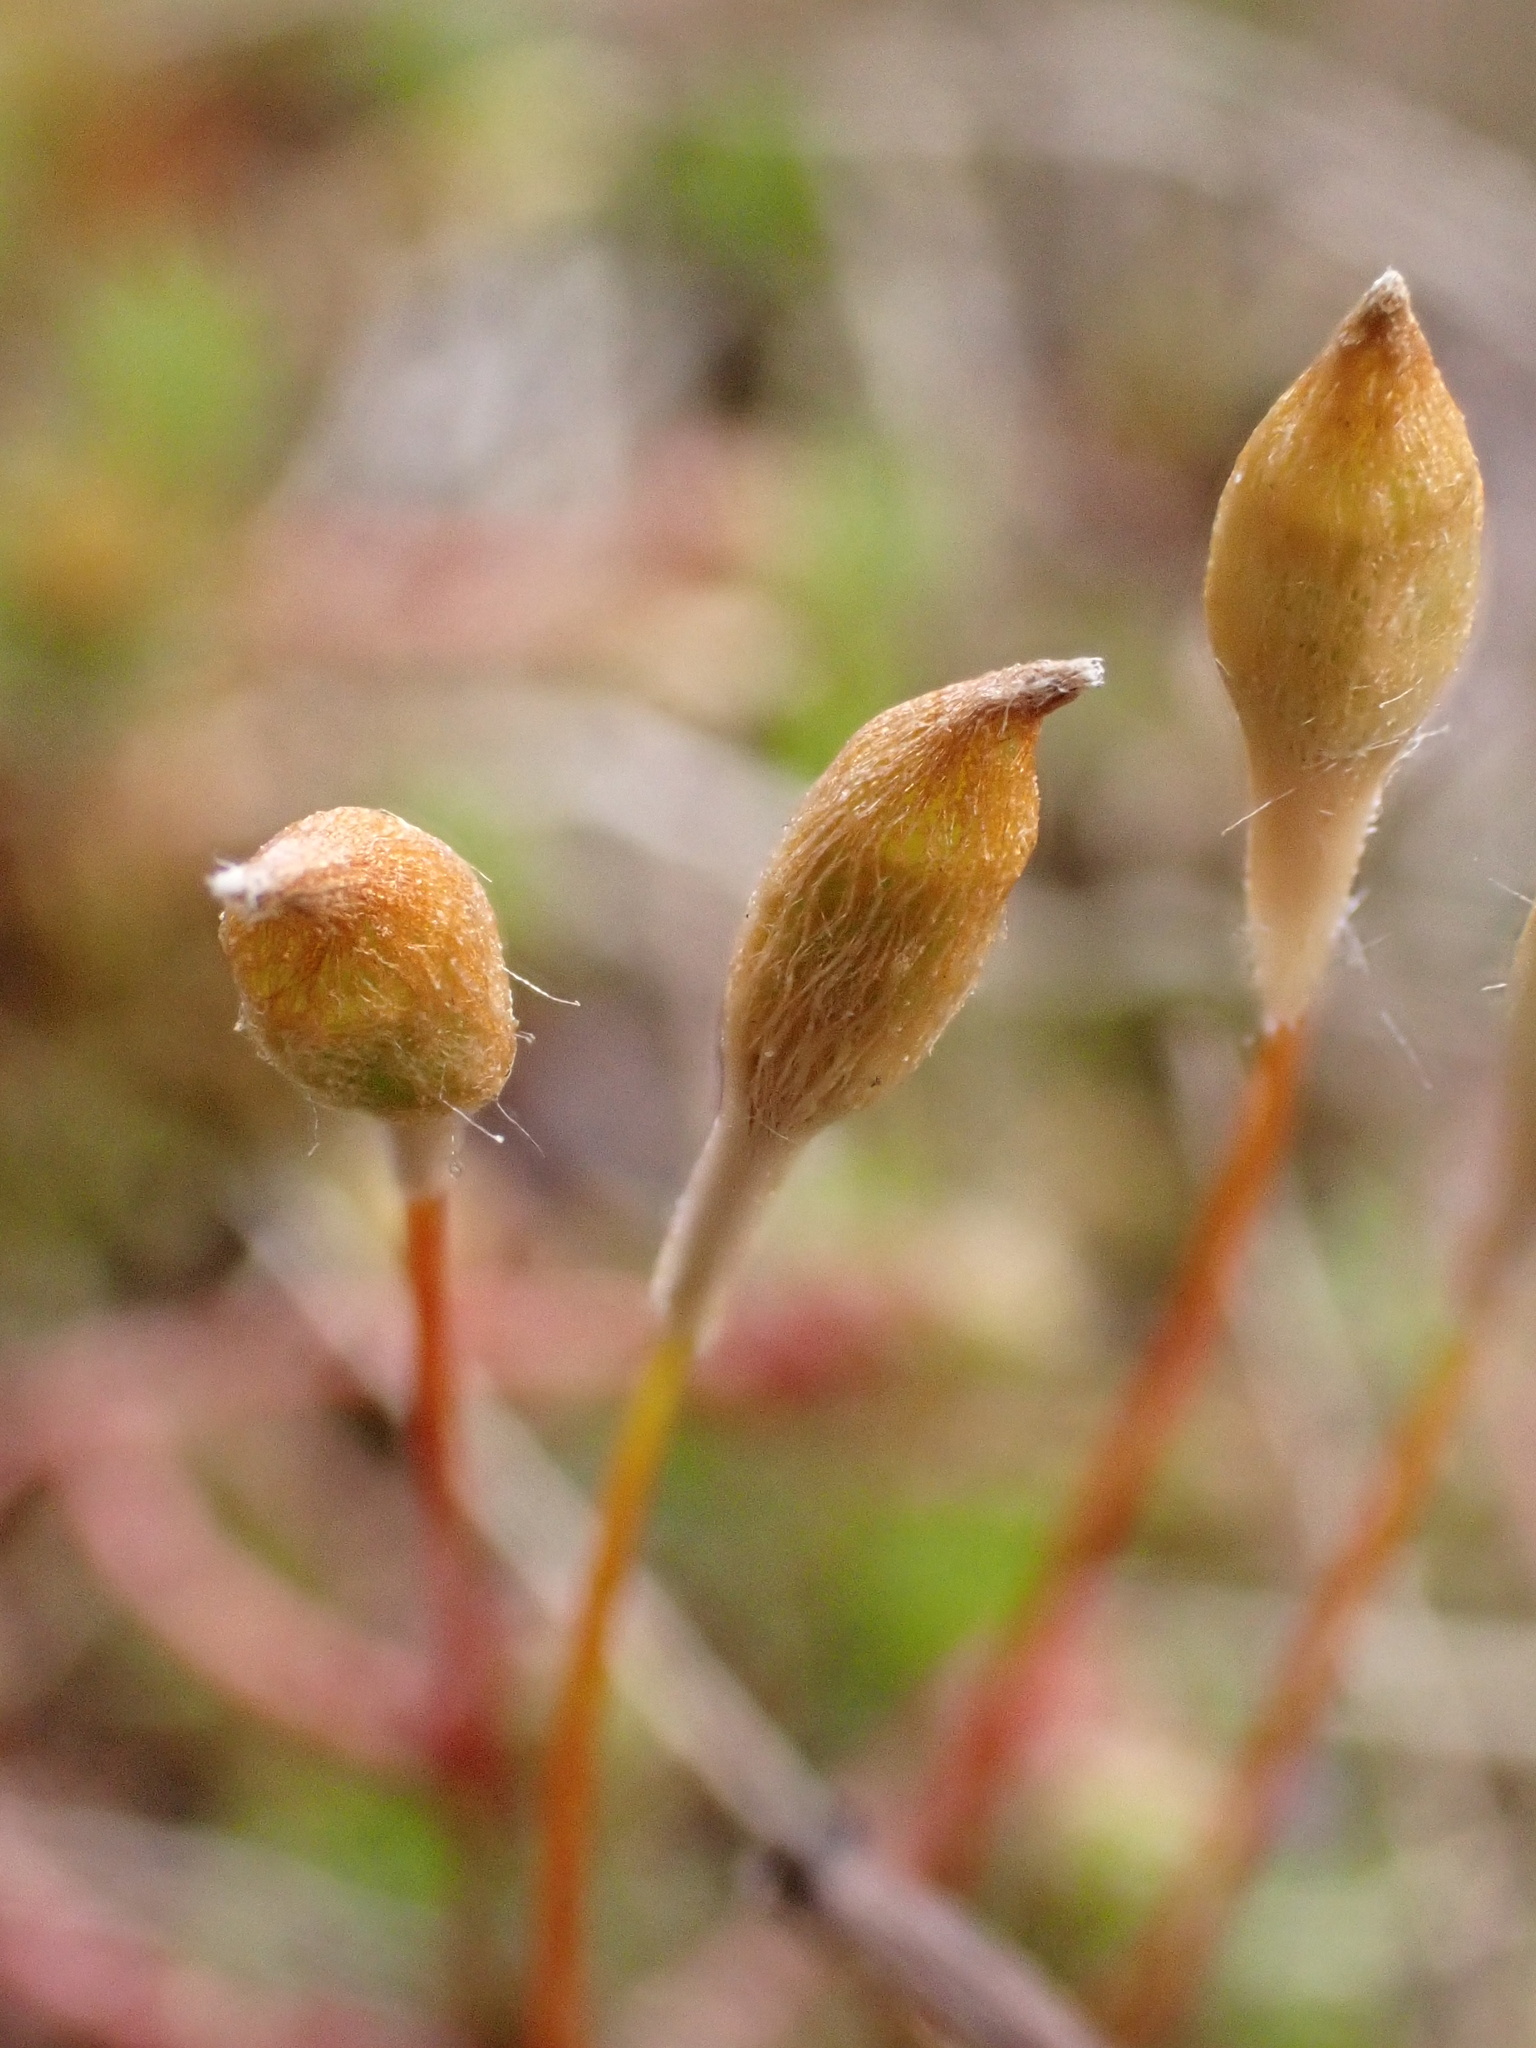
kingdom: Plantae
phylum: Bryophyta
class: Polytrichopsida
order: Polytrichales
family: Polytrichaceae
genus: Polytrichum
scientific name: Polytrichum juniperinum
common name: Juniper haircap moss
